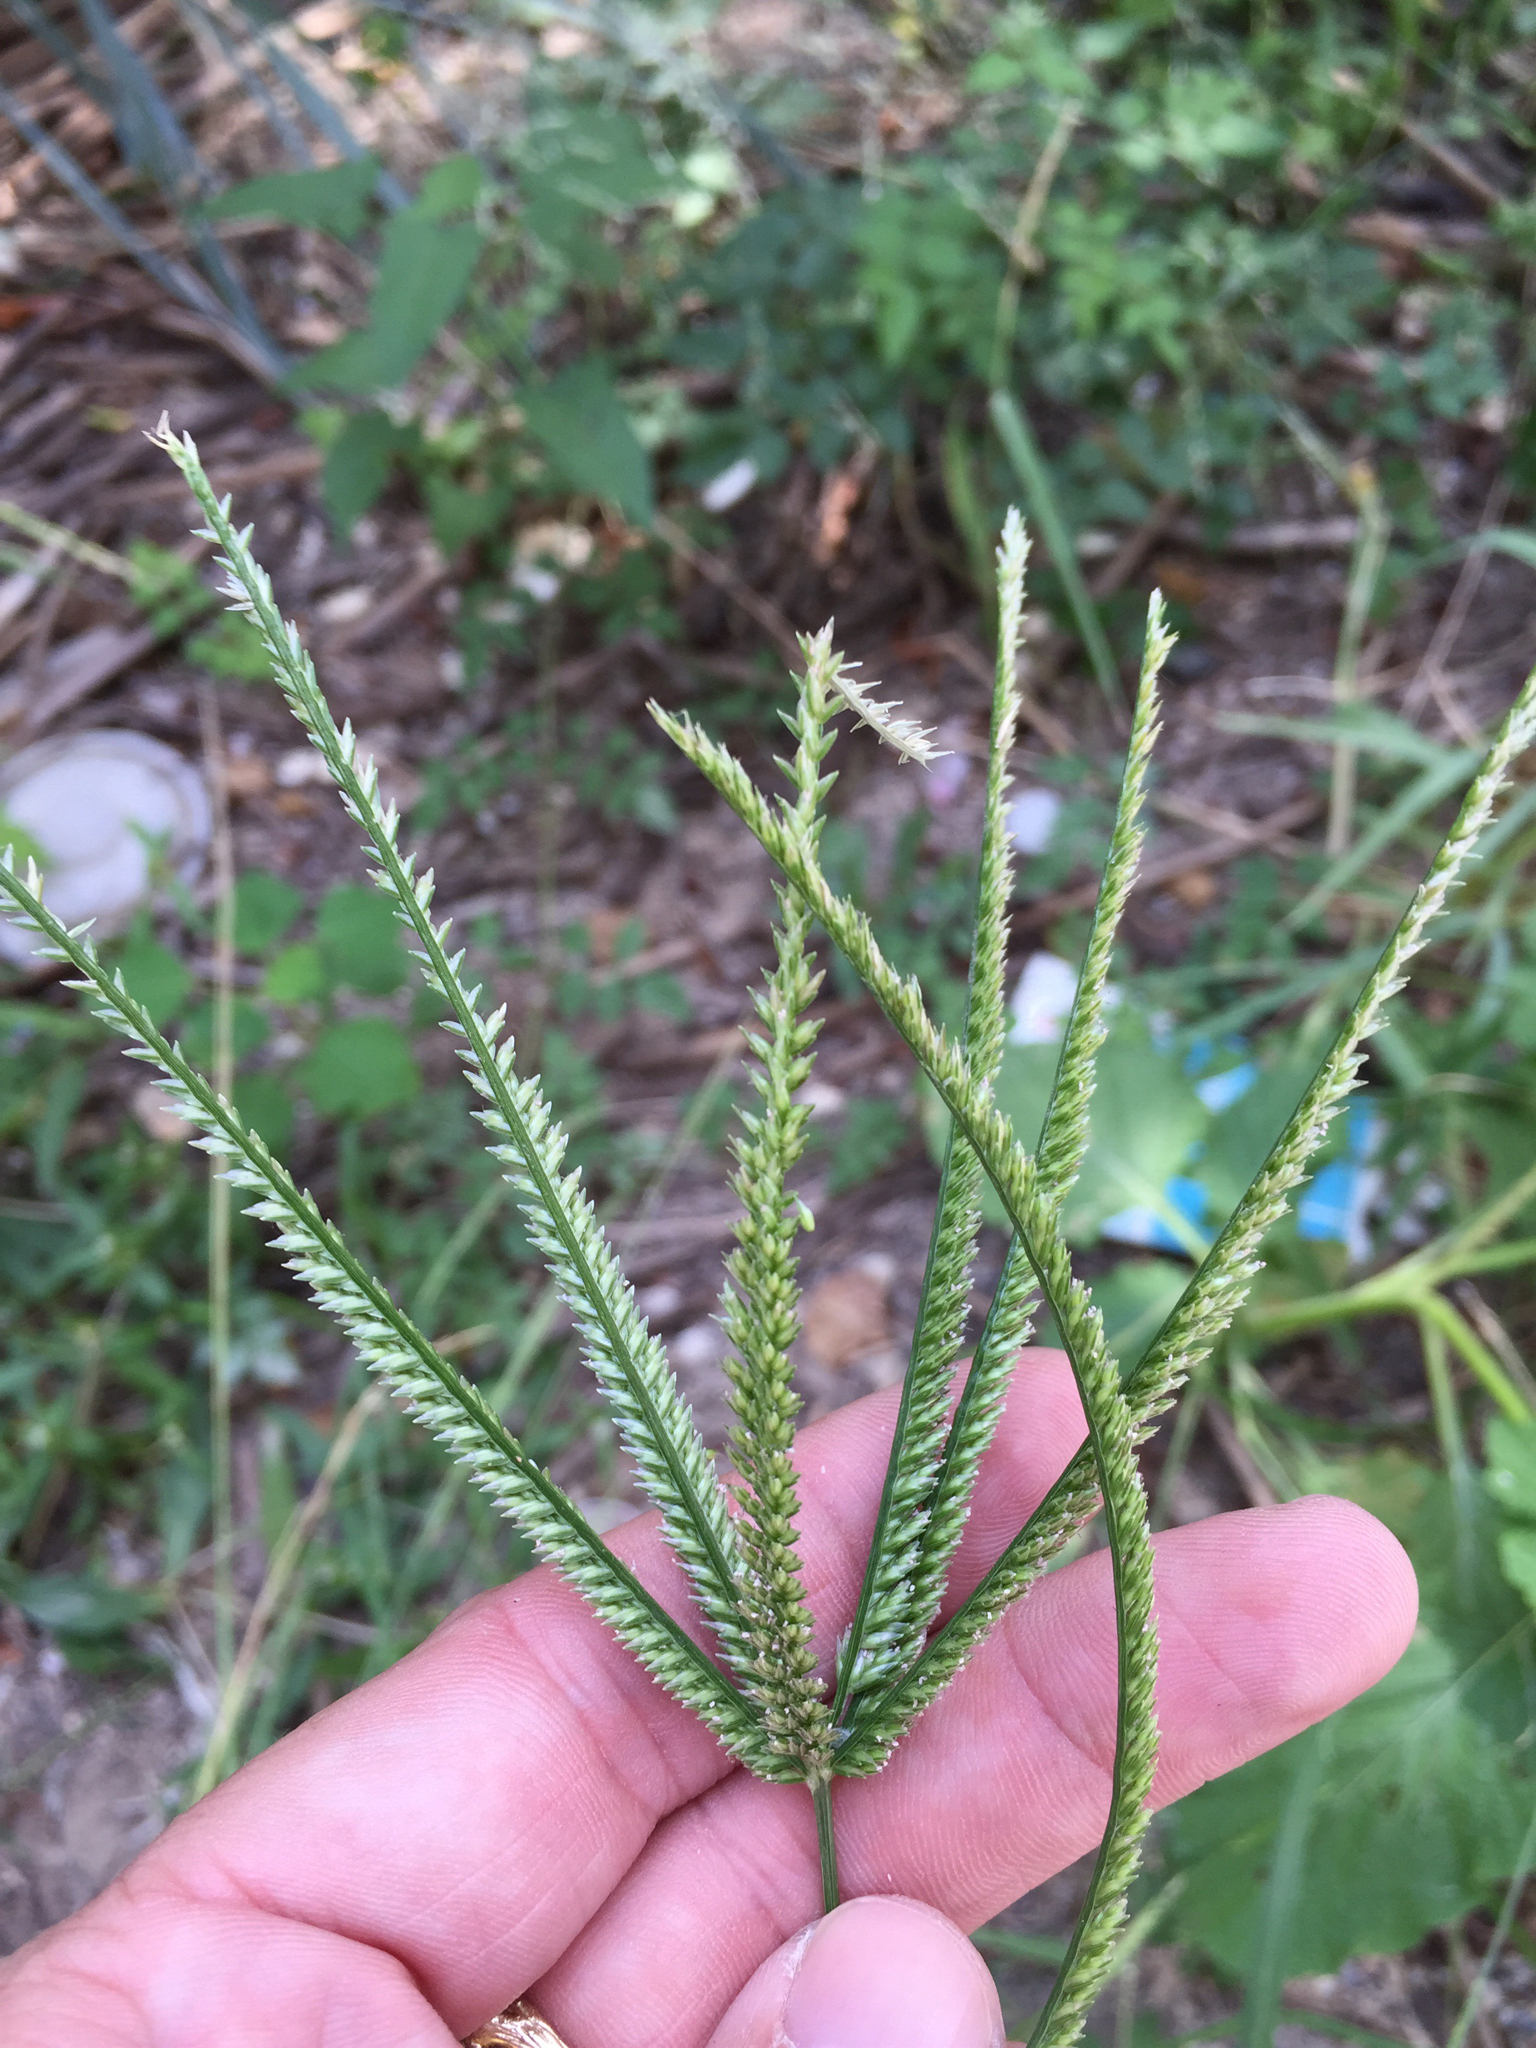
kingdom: Plantae
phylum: Tracheophyta
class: Liliopsida
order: Poales
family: Poaceae
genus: Eleusine
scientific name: Eleusine indica
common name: Yard-grass
